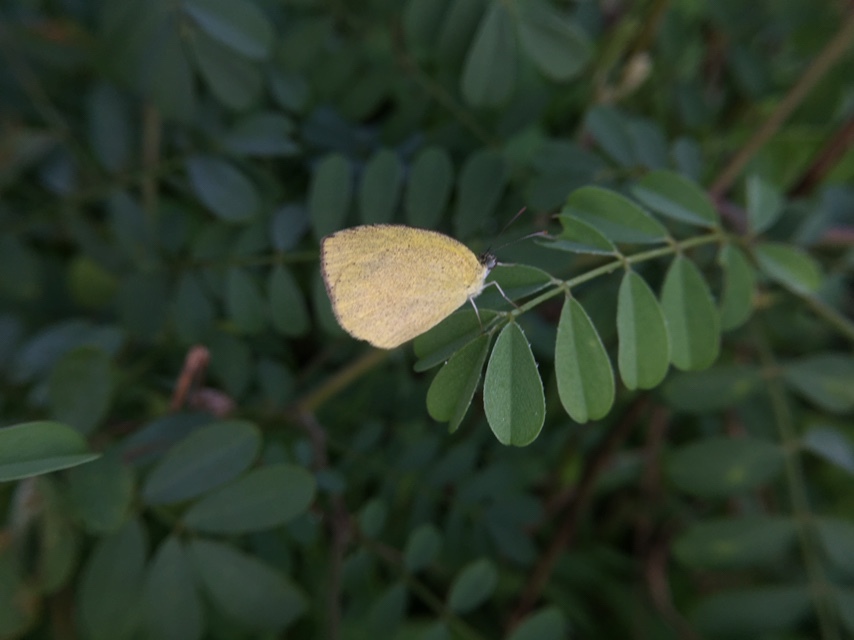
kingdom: Animalia
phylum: Arthropoda
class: Insecta
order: Lepidoptera
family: Pieridae
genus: Eurema
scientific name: Eurema laeta
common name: Spotless grass yellow
